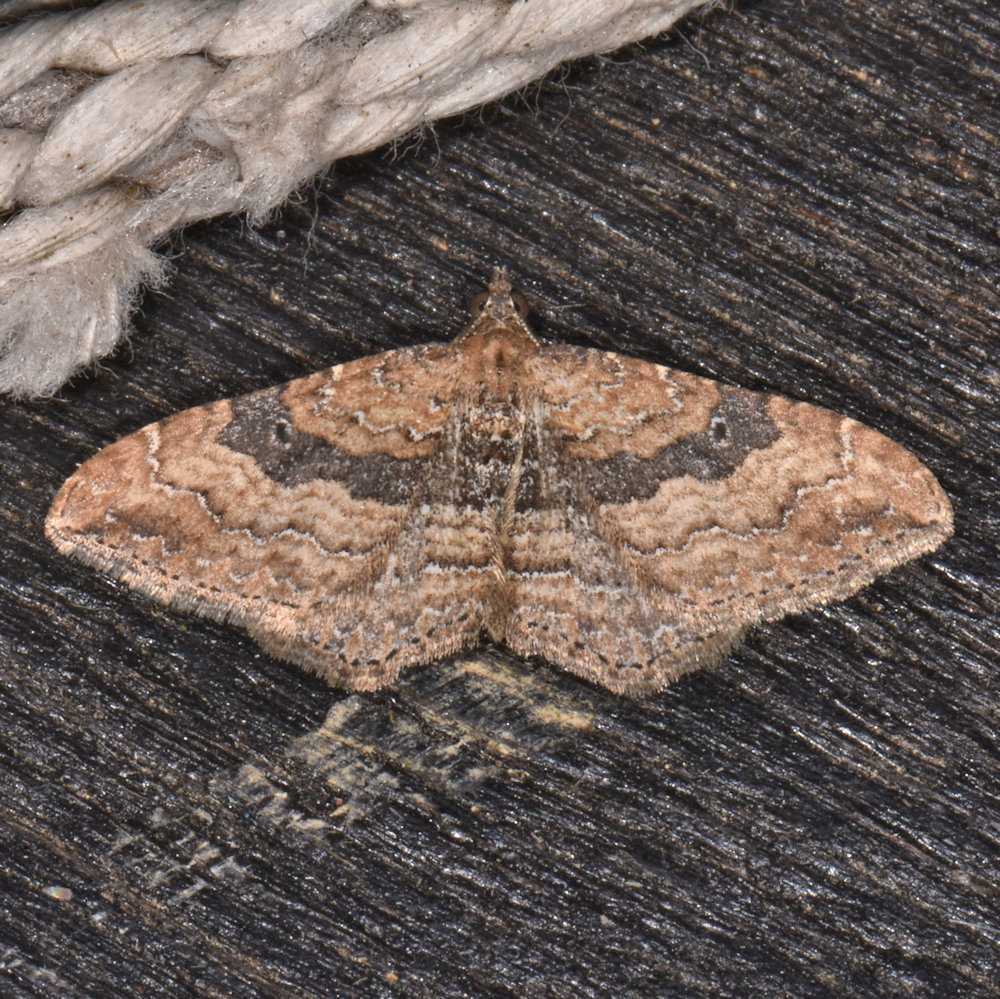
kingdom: Animalia
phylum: Arthropoda
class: Insecta
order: Lepidoptera
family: Geometridae
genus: Orthonama
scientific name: Orthonama obstipata
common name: The gem
